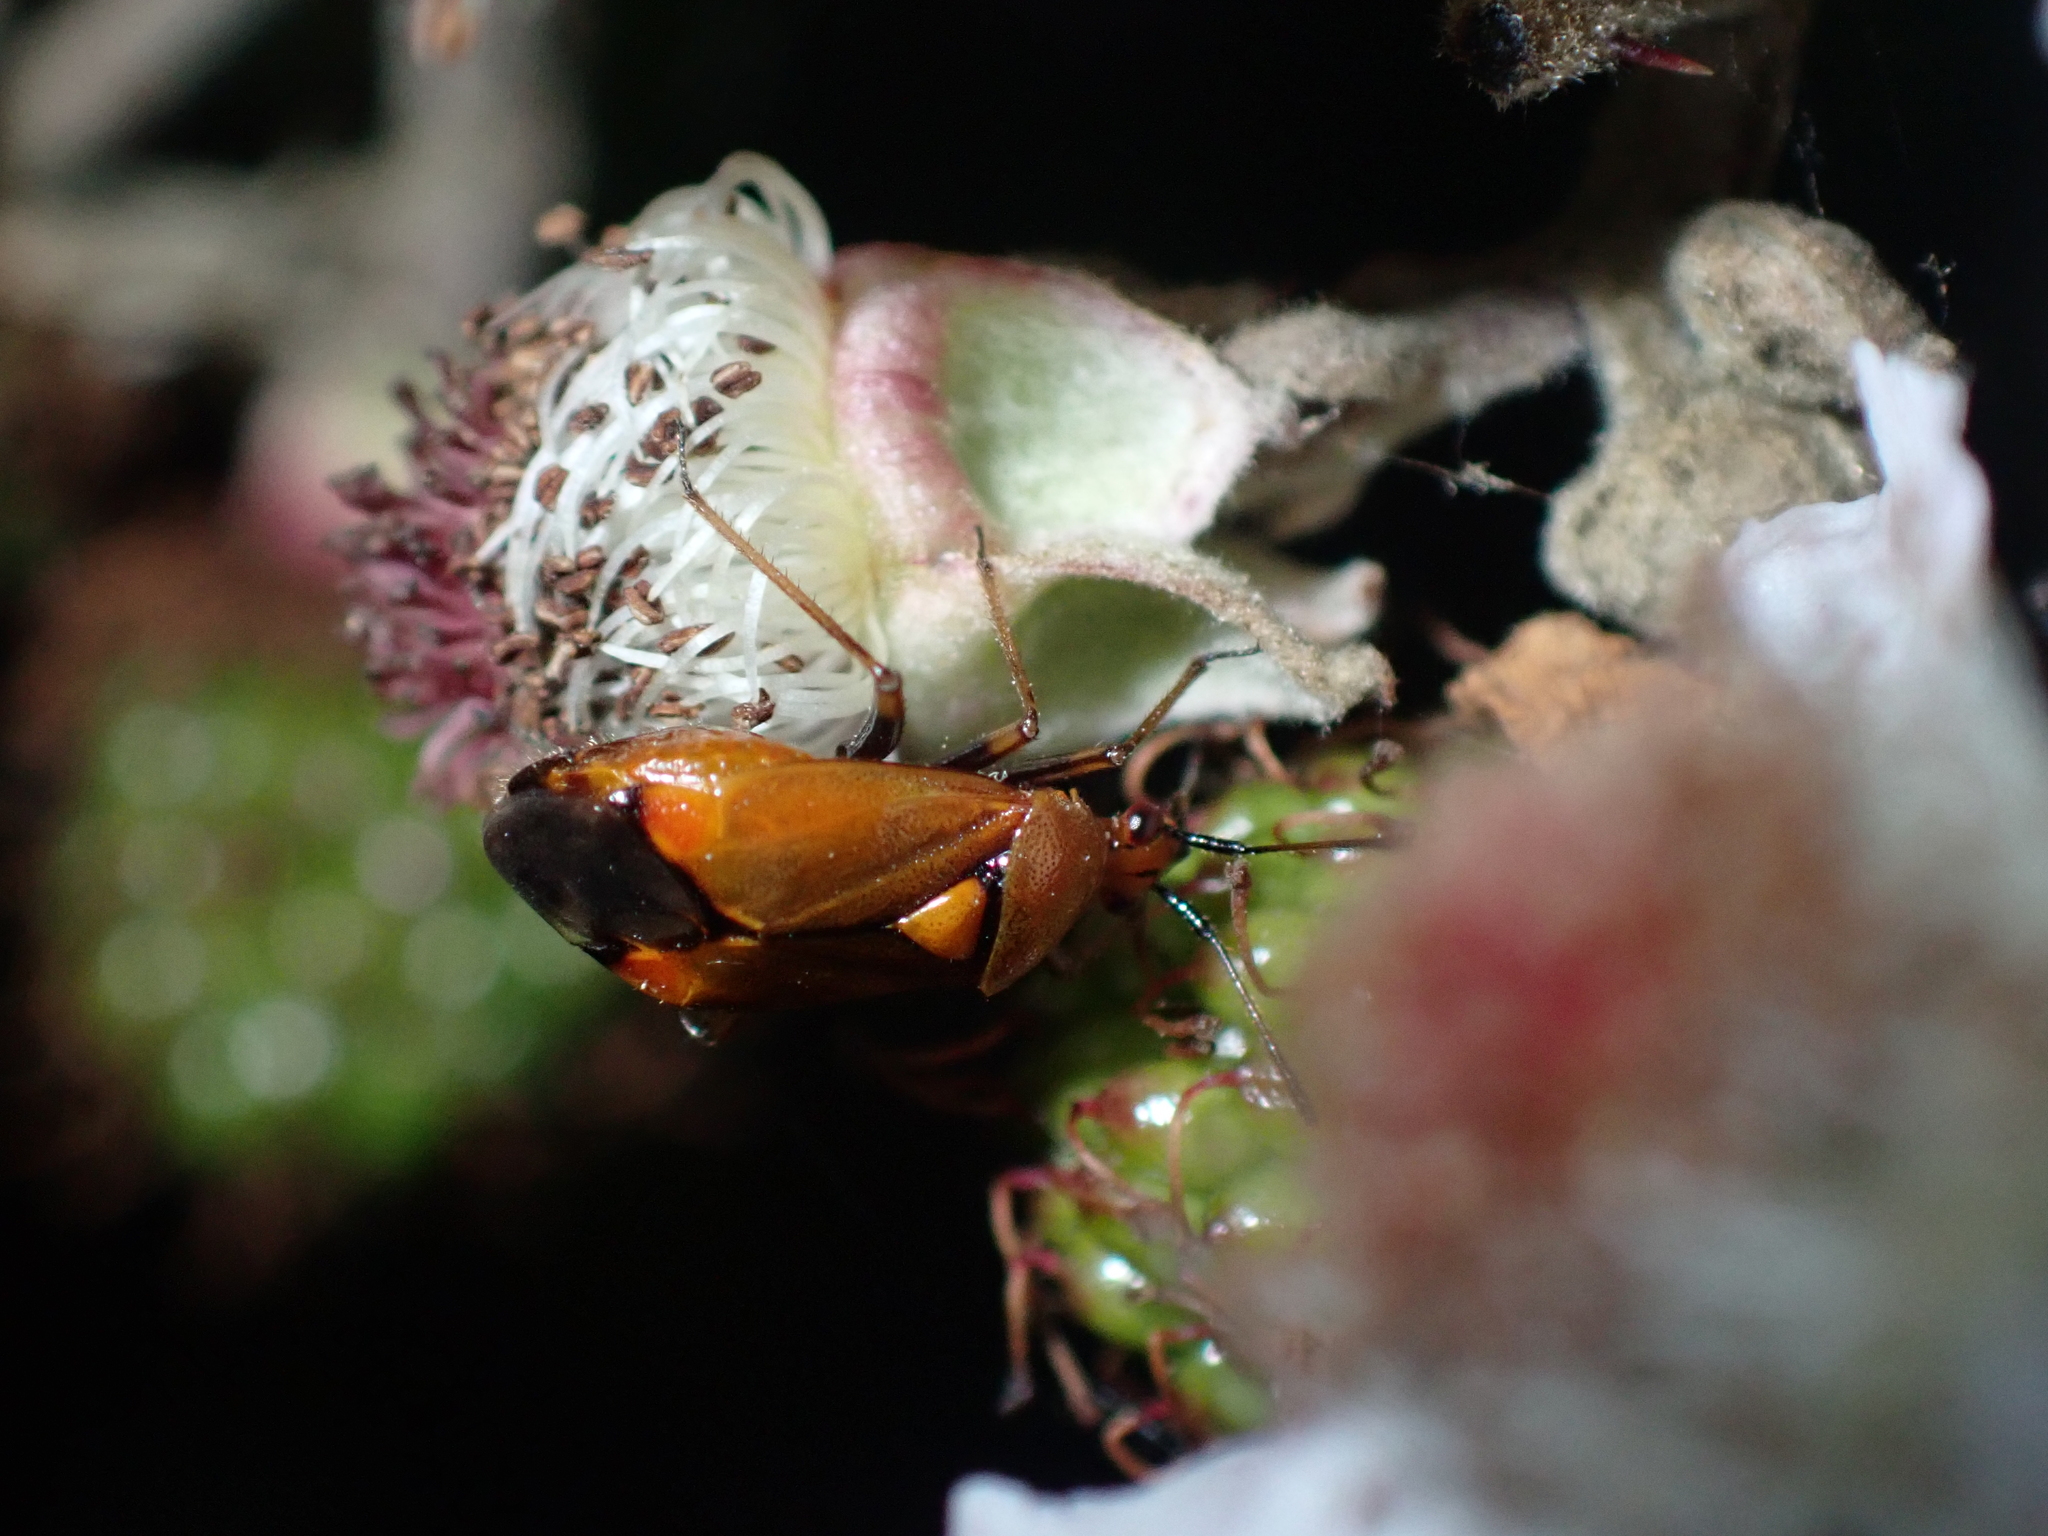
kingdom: Animalia
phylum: Arthropoda
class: Insecta
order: Hemiptera
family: Miridae
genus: Deraeocoris
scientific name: Deraeocoris ruber
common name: Plant bug
